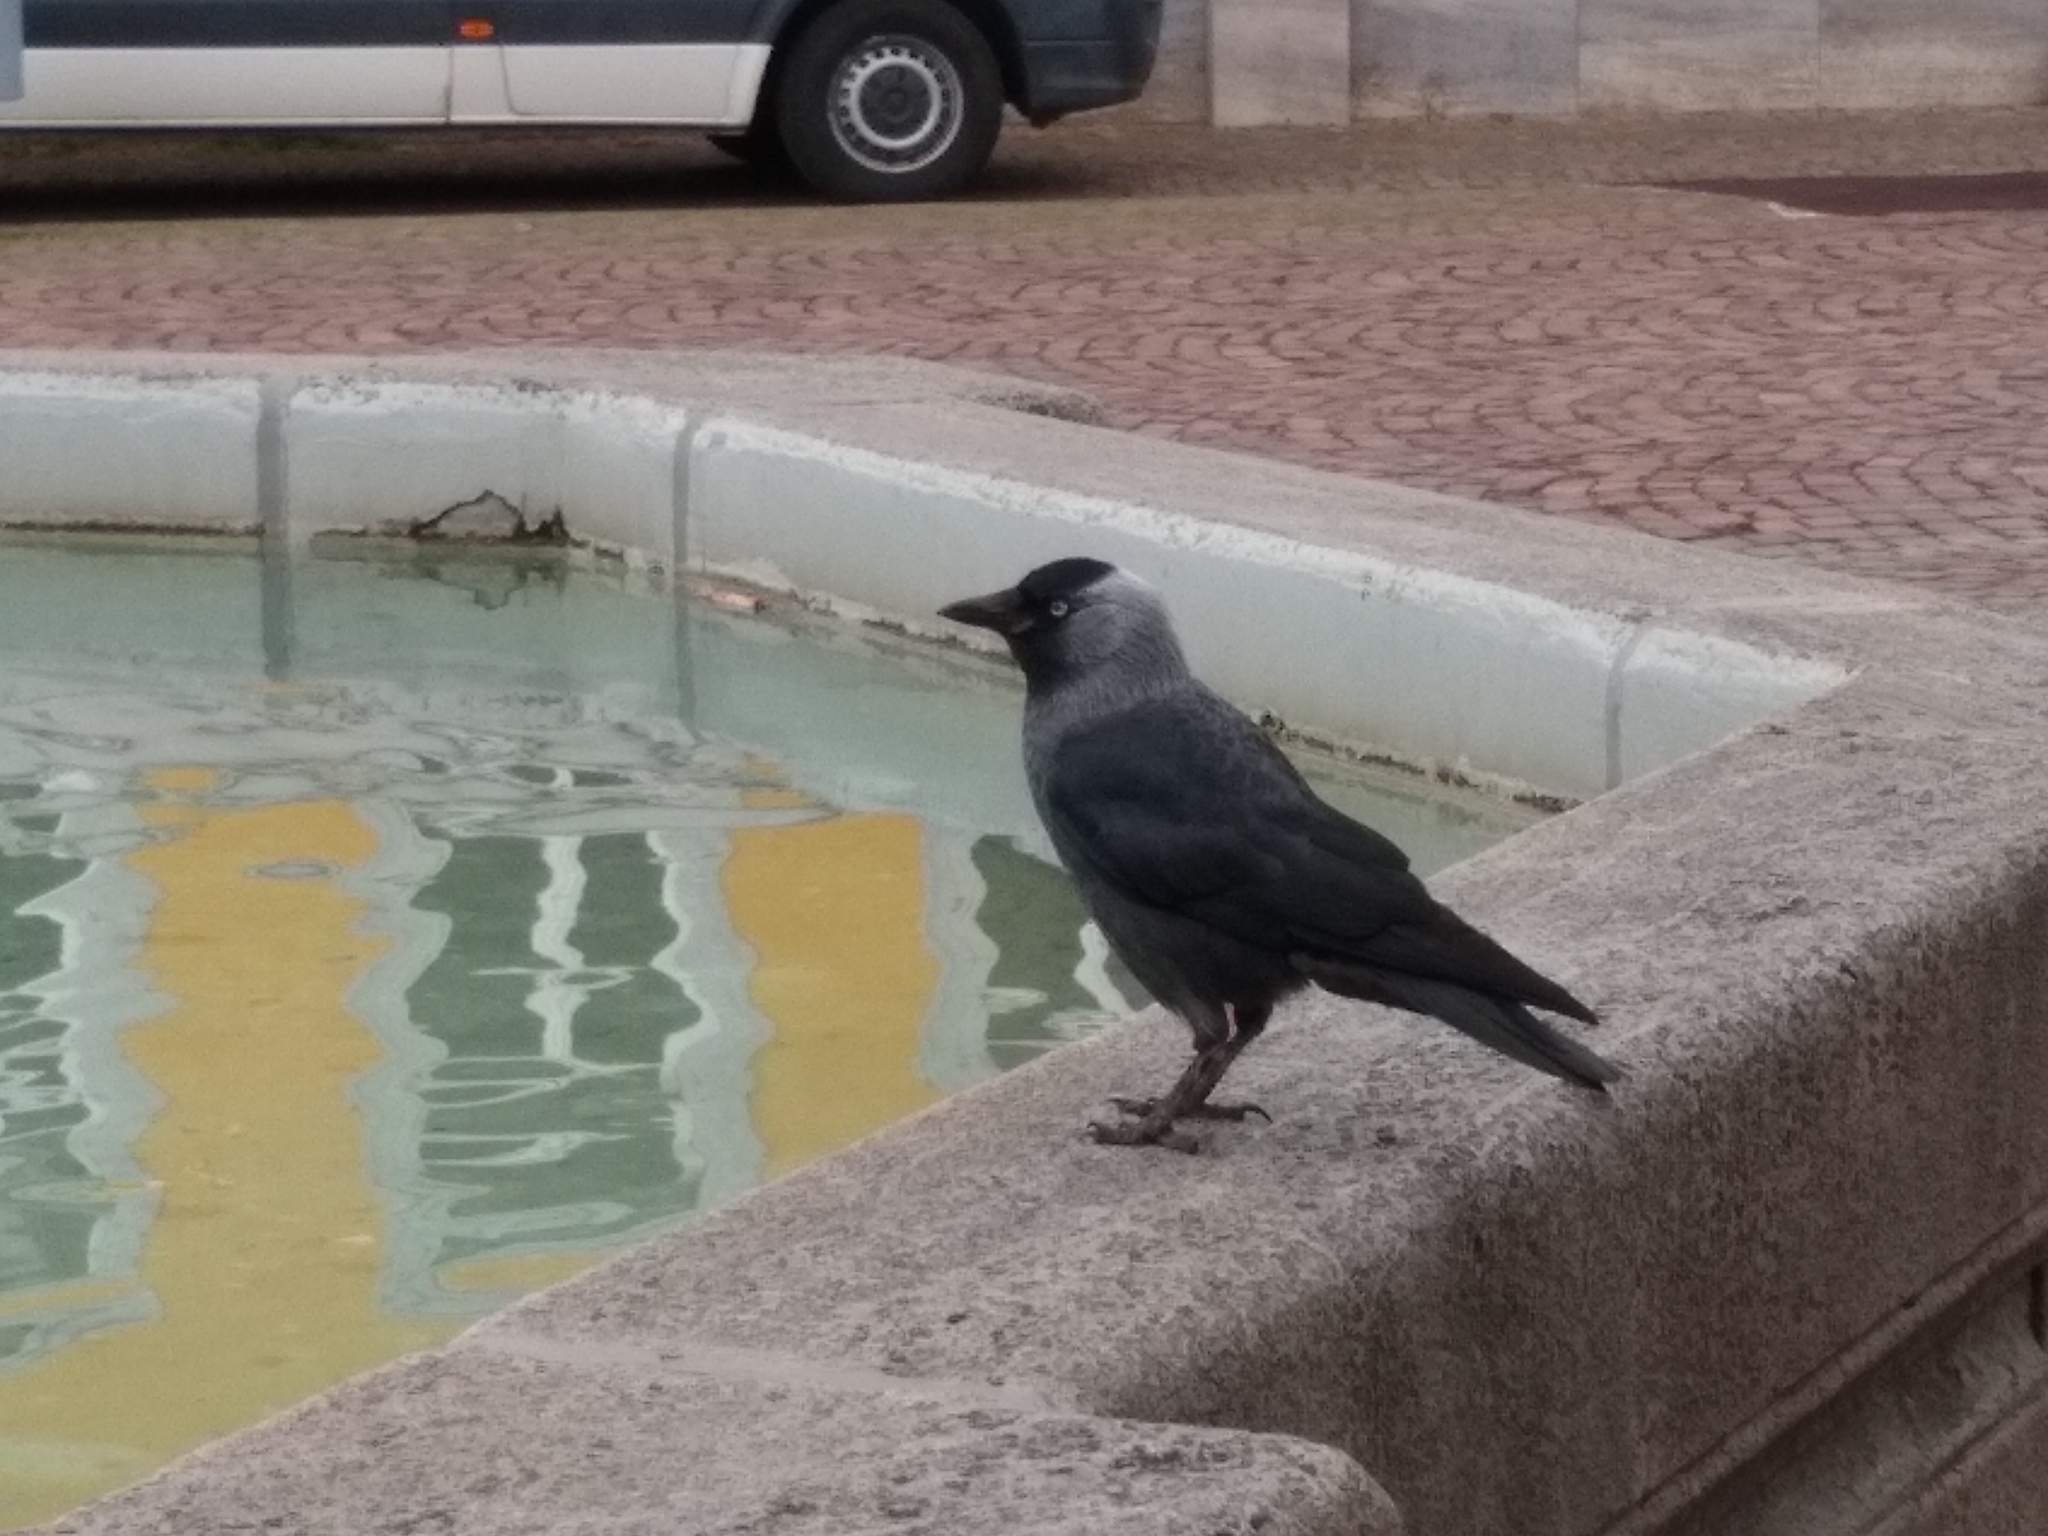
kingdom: Animalia
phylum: Chordata
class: Aves
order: Passeriformes
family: Corvidae
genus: Coloeus
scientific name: Coloeus monedula
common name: Western jackdaw
